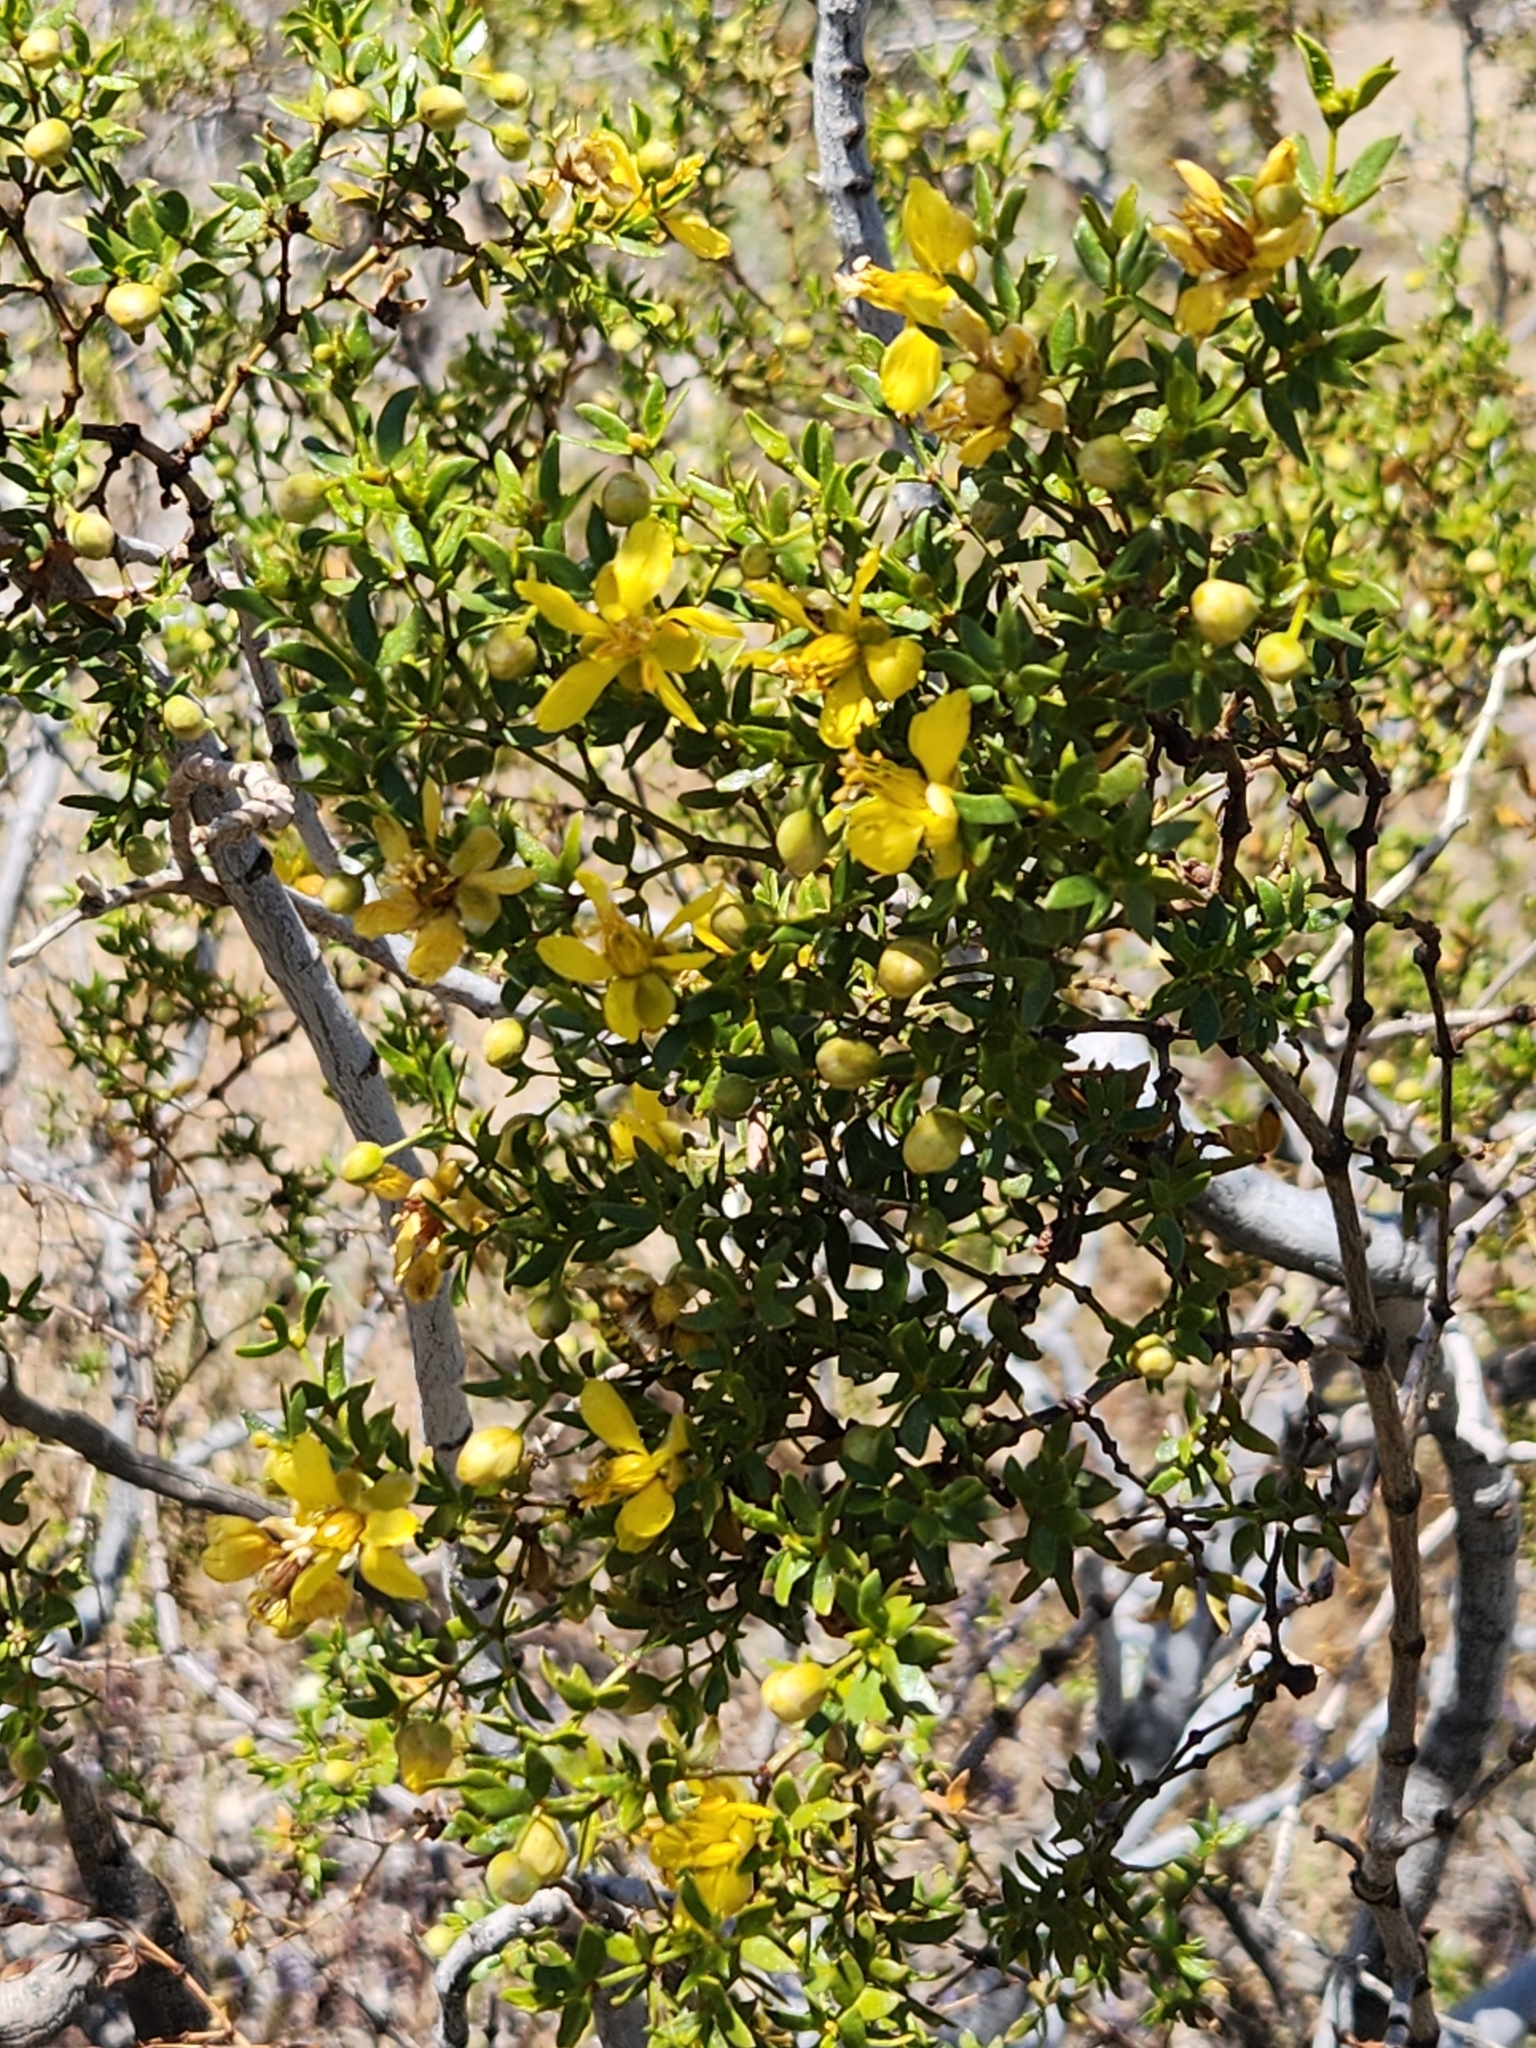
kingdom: Plantae
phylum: Tracheophyta
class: Magnoliopsida
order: Zygophyllales
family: Zygophyllaceae
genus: Larrea
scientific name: Larrea tridentata
